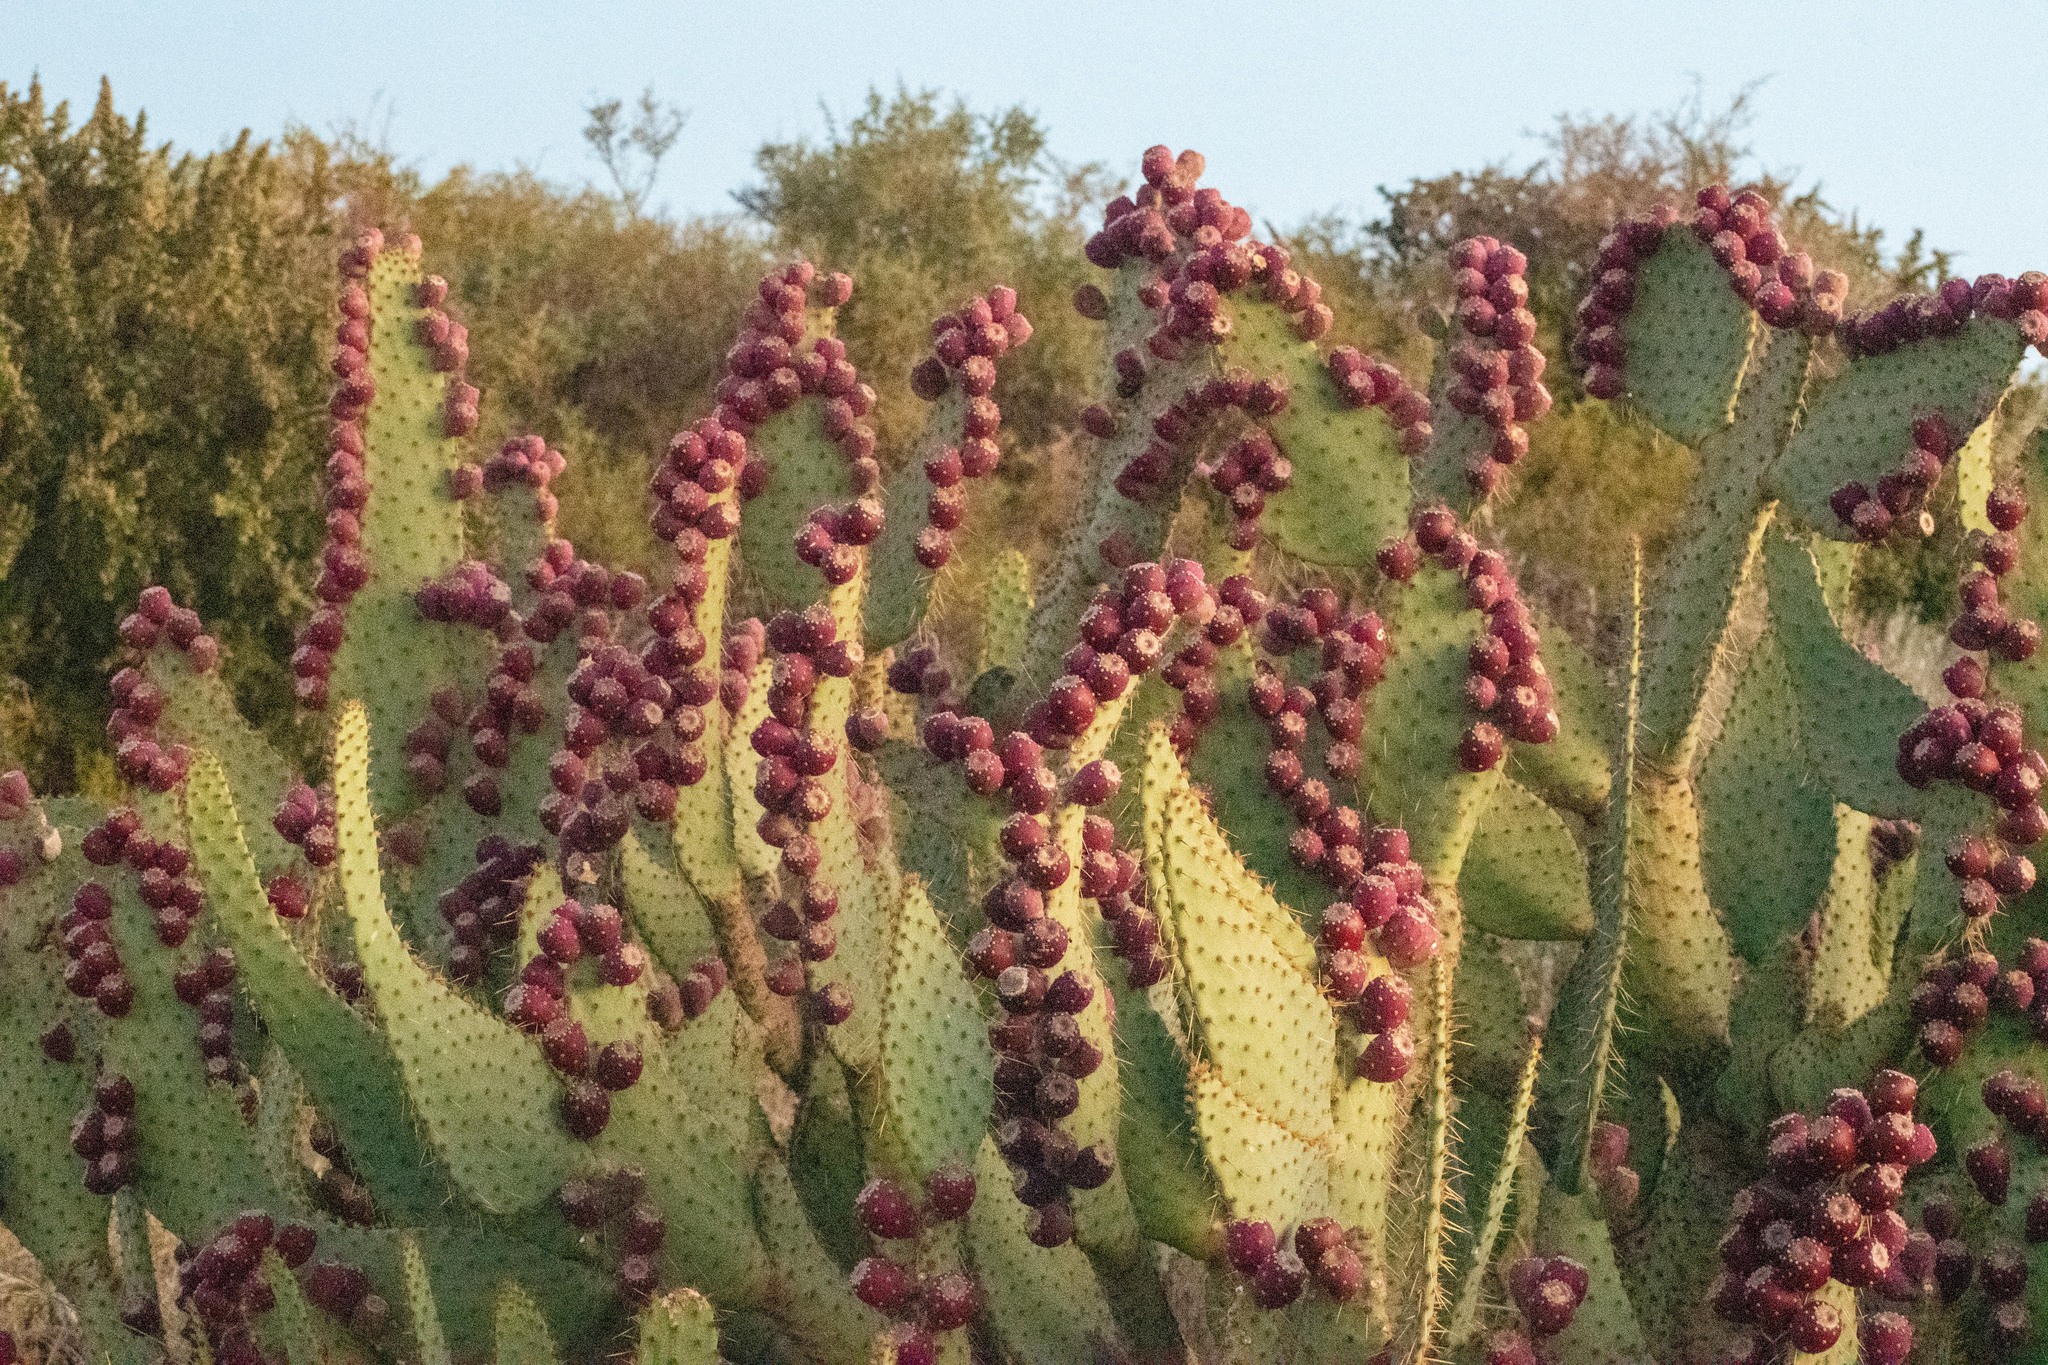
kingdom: Plantae
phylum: Tracheophyta
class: Magnoliopsida
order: Caryophyllales
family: Cactaceae
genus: Opuntia
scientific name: Opuntia engelmannii
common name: Cactus-apple
